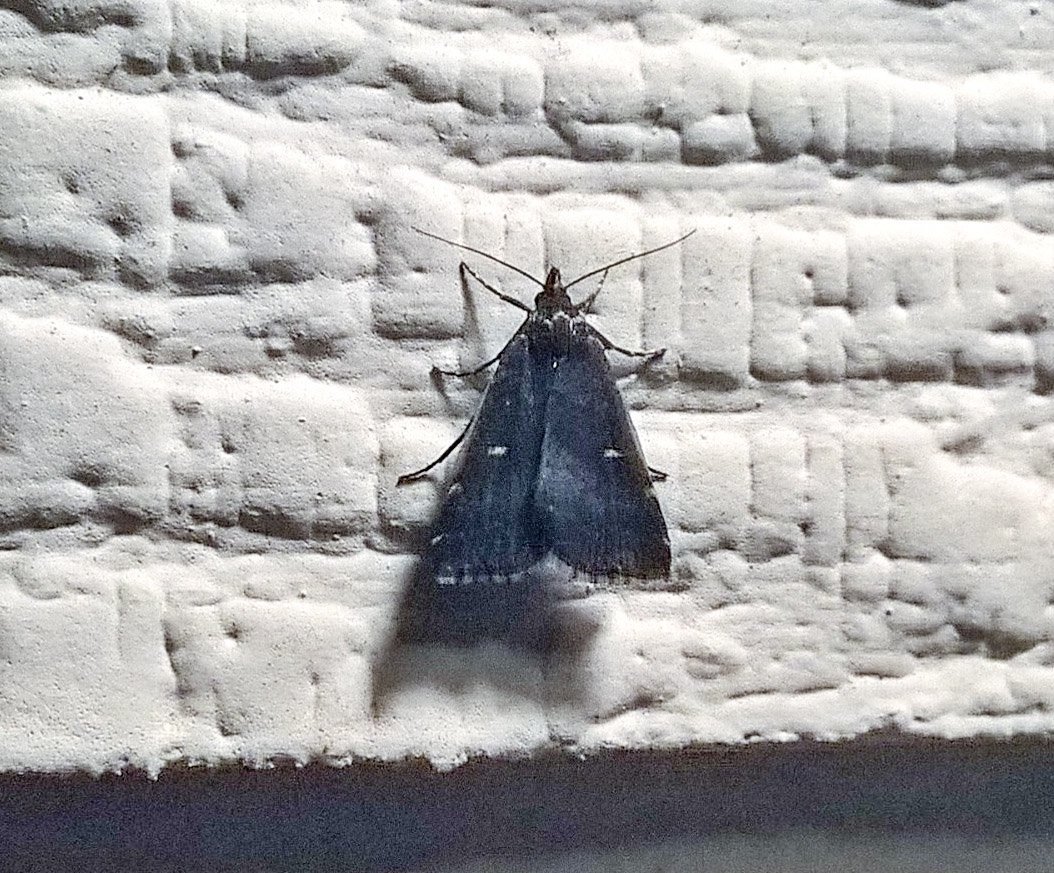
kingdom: Animalia
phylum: Arthropoda
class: Insecta
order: Lepidoptera
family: Erebidae
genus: Tetanolita
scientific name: Tetanolita mynesalis
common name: Smoky tetanolita moth
